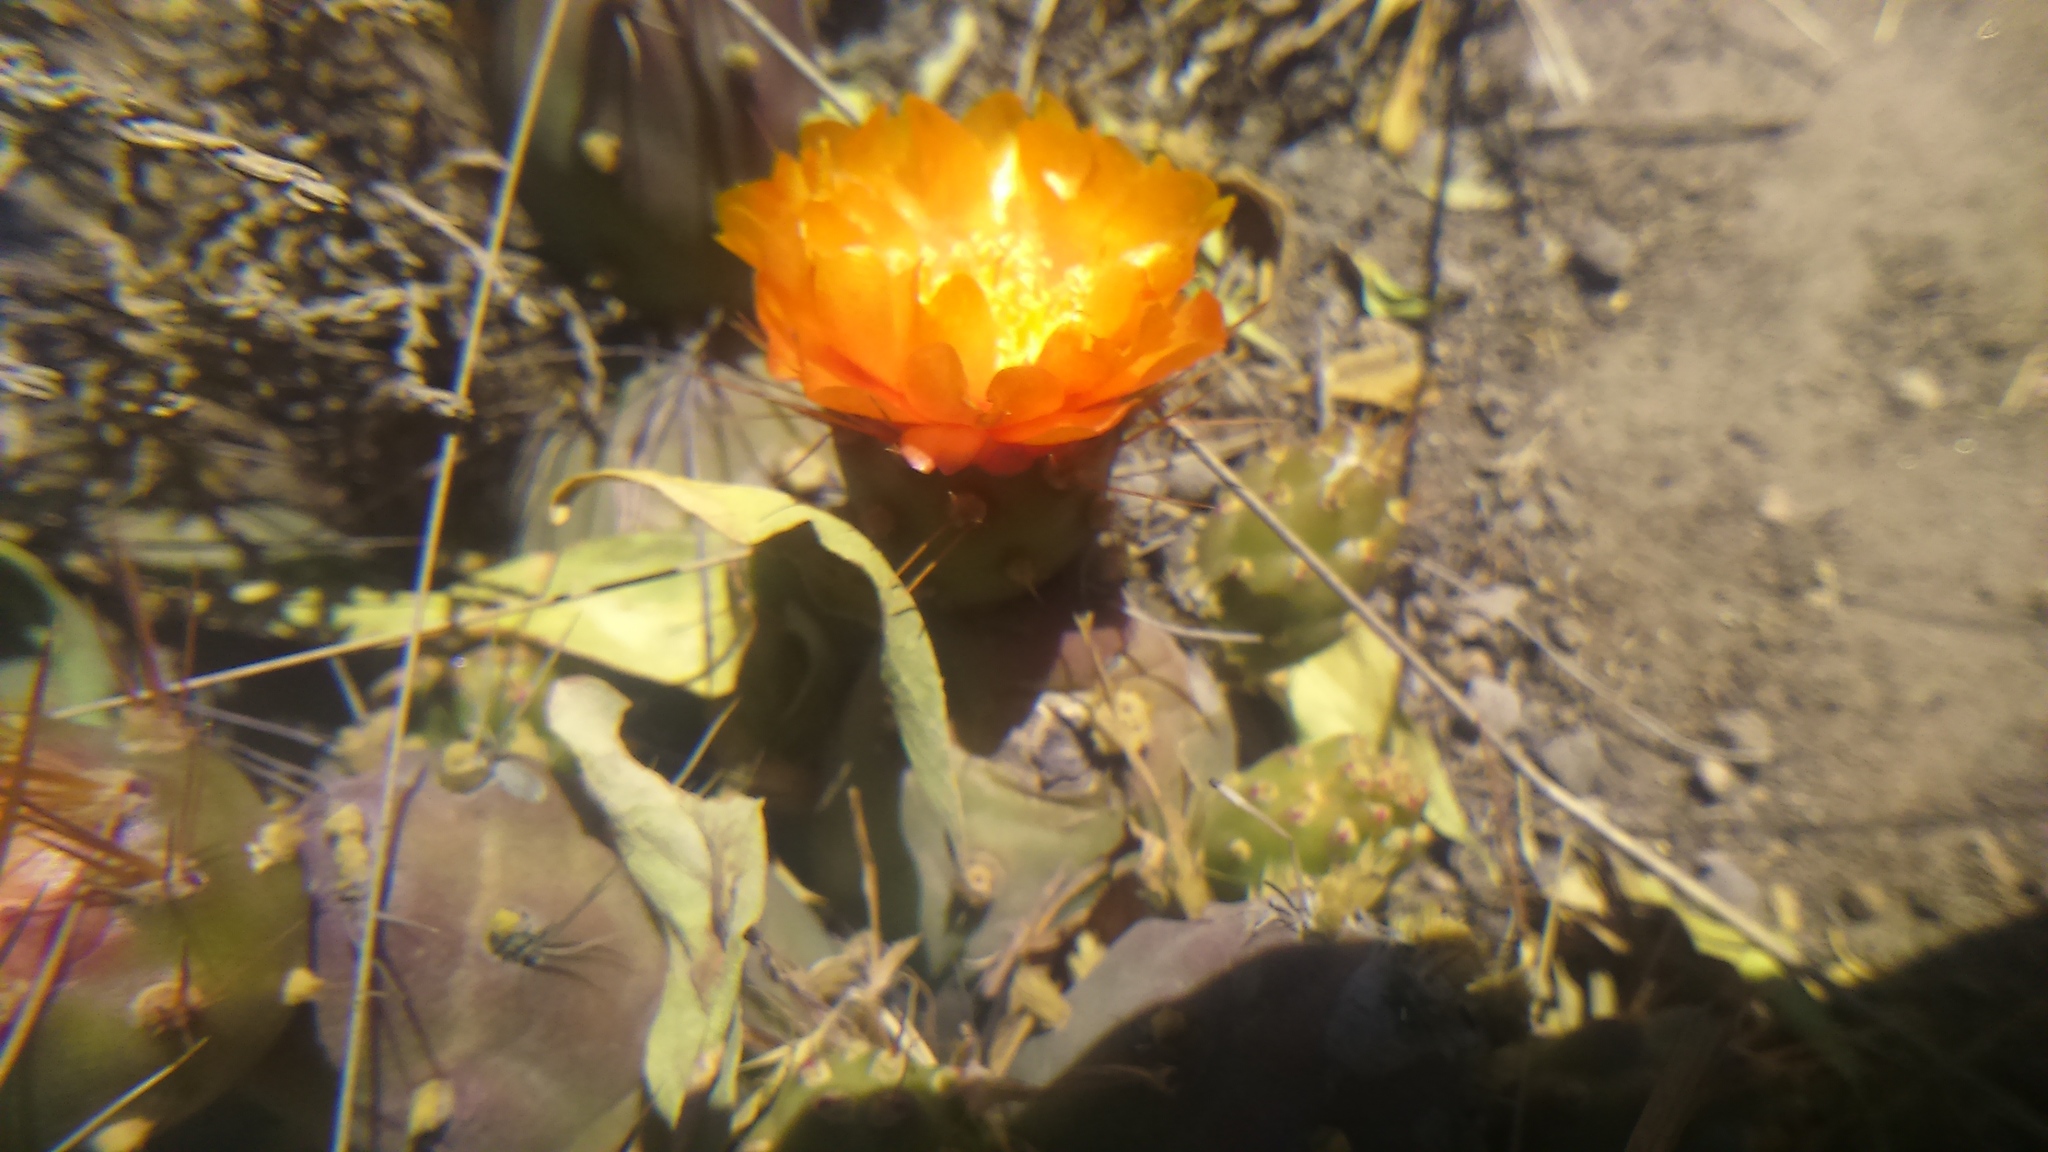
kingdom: Plantae
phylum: Tracheophyta
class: Magnoliopsida
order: Caryophyllales
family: Cactaceae
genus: Cumulopuntia
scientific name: Cumulopuntia corotilla
